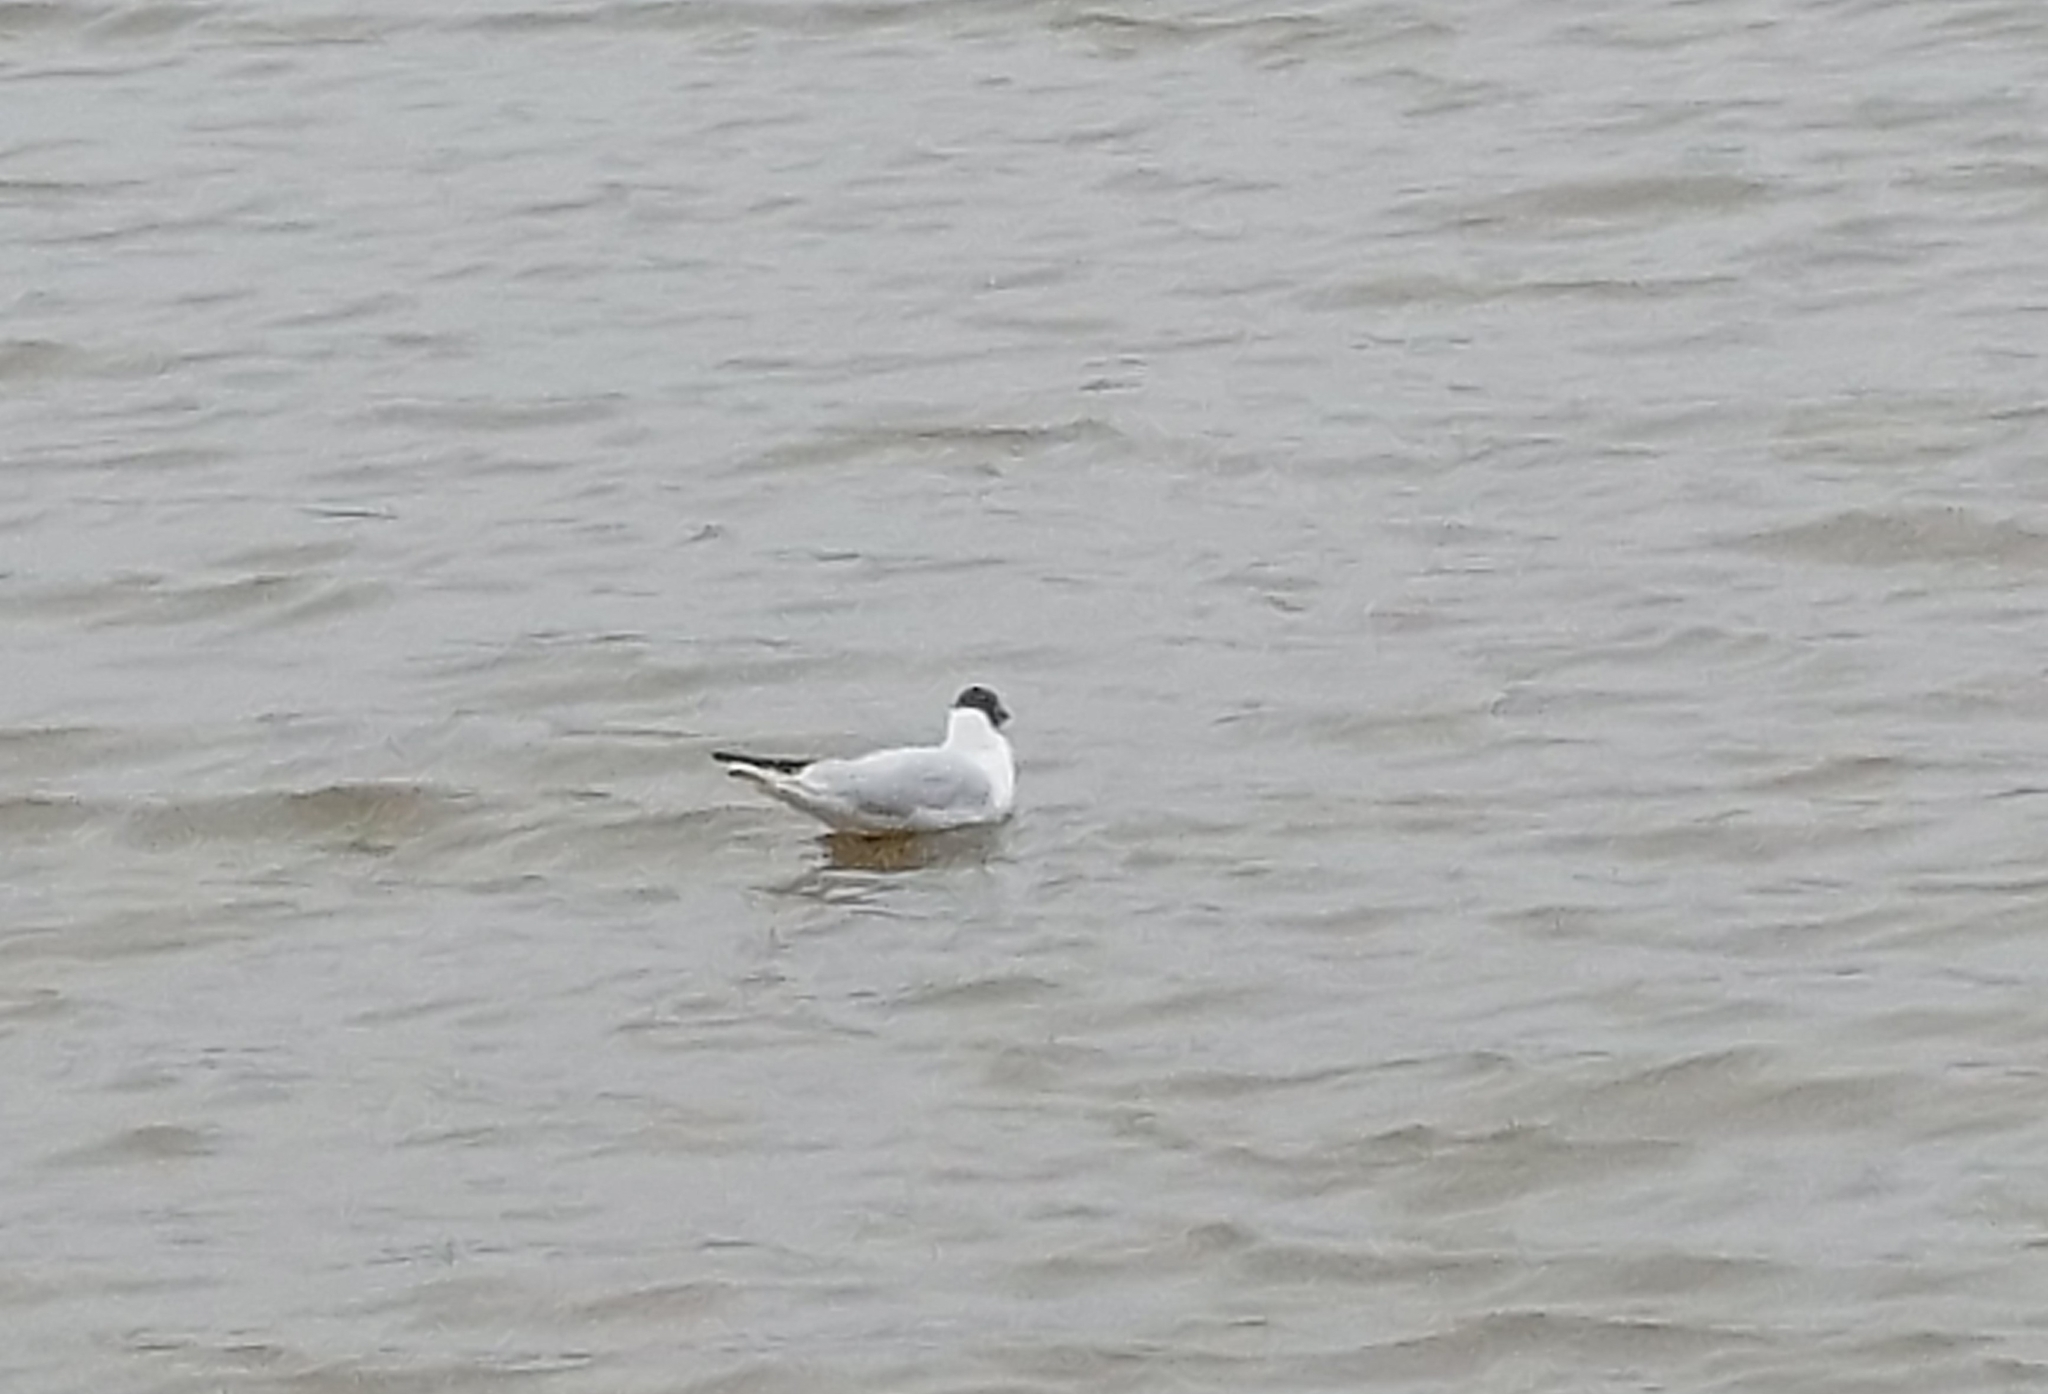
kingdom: Animalia
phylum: Chordata
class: Aves
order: Charadriiformes
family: Laridae
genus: Chroicocephalus
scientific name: Chroicocephalus ridibundus
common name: Black-headed gull
